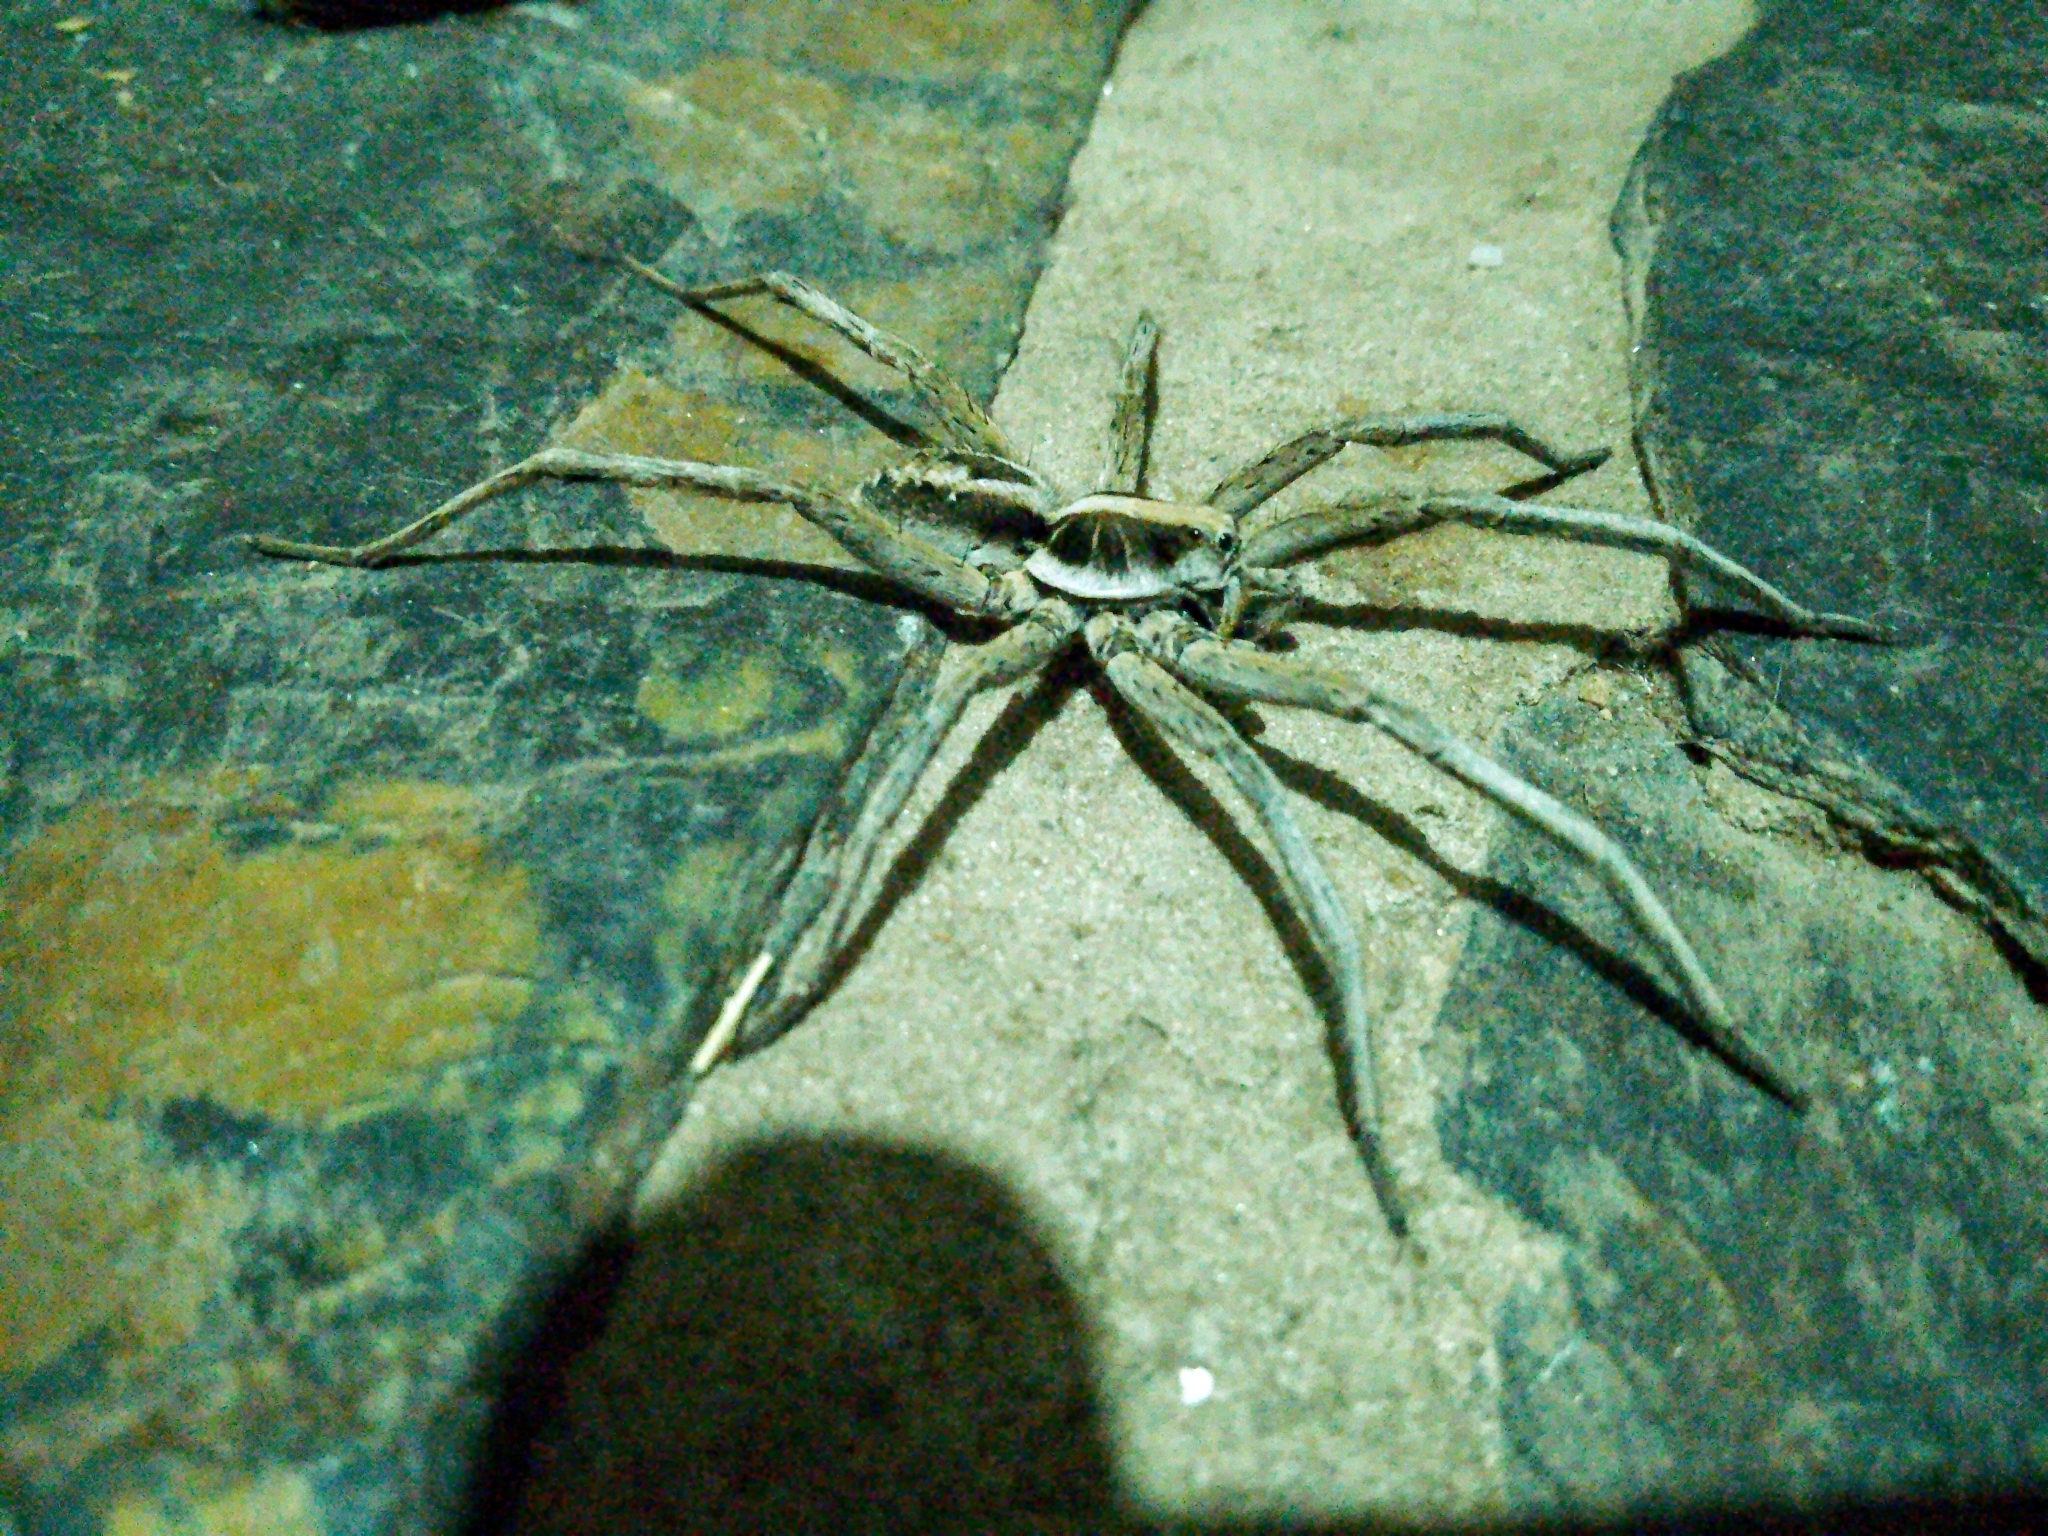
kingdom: Animalia
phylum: Arthropoda
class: Arachnida
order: Araneae
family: Lycosidae
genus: Schizocosa
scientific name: Schizocosa malitiosa
